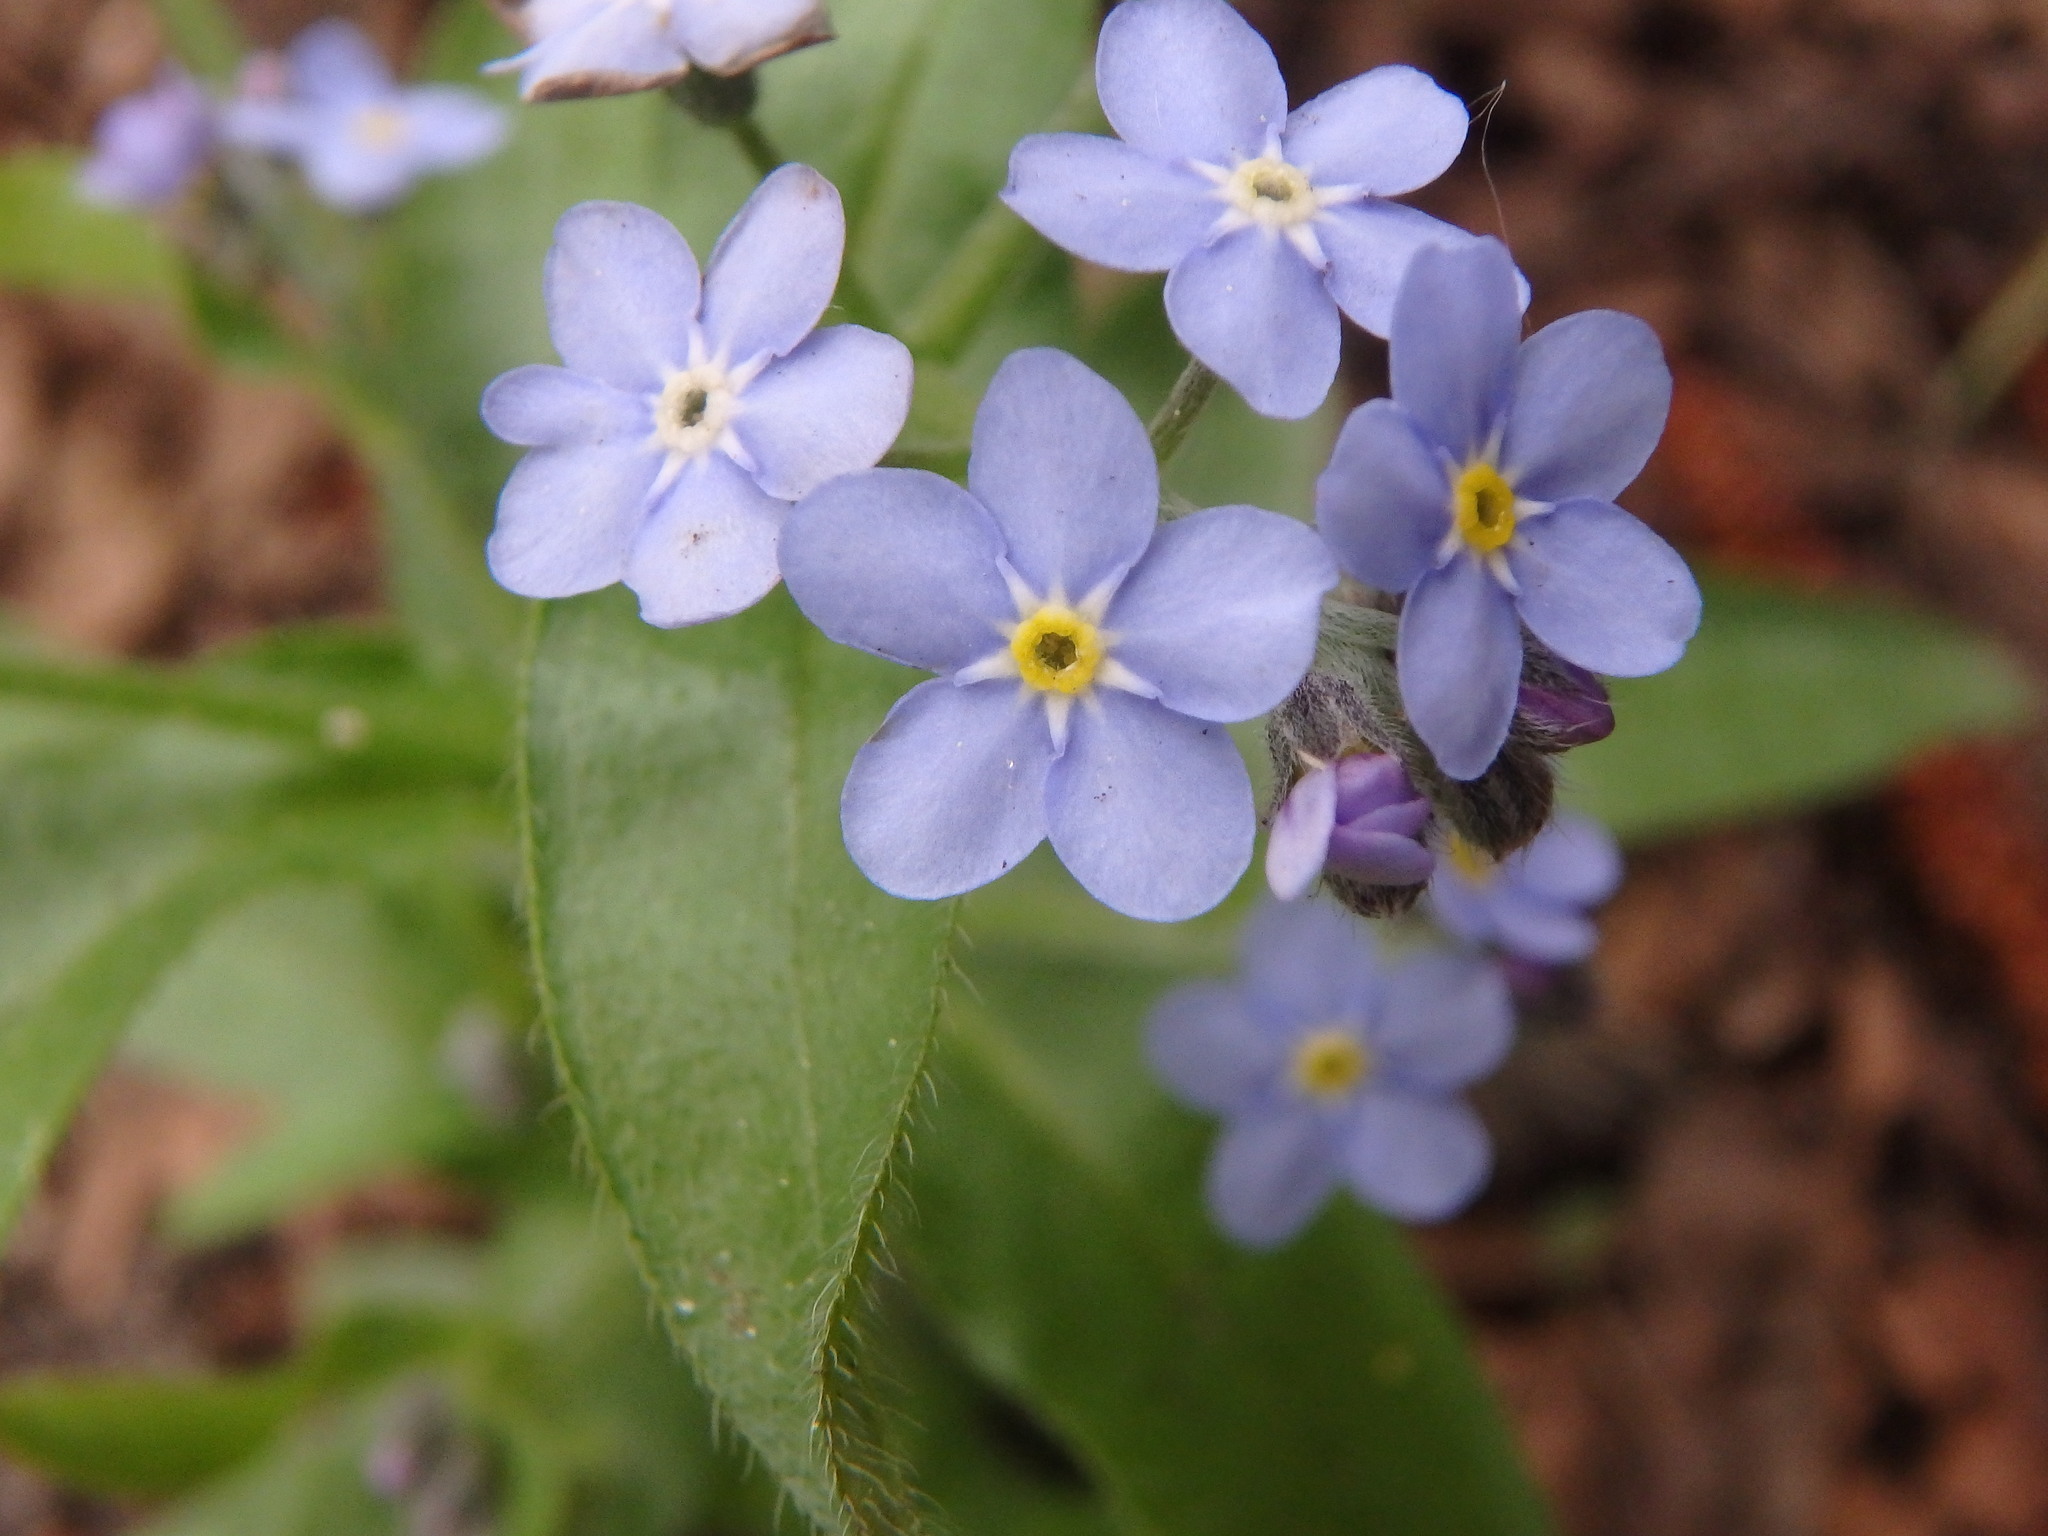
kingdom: Plantae
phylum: Tracheophyta
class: Magnoliopsida
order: Boraginales
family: Boraginaceae
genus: Myosotis
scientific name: Myosotis sylvatica
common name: Wood forget-me-not
